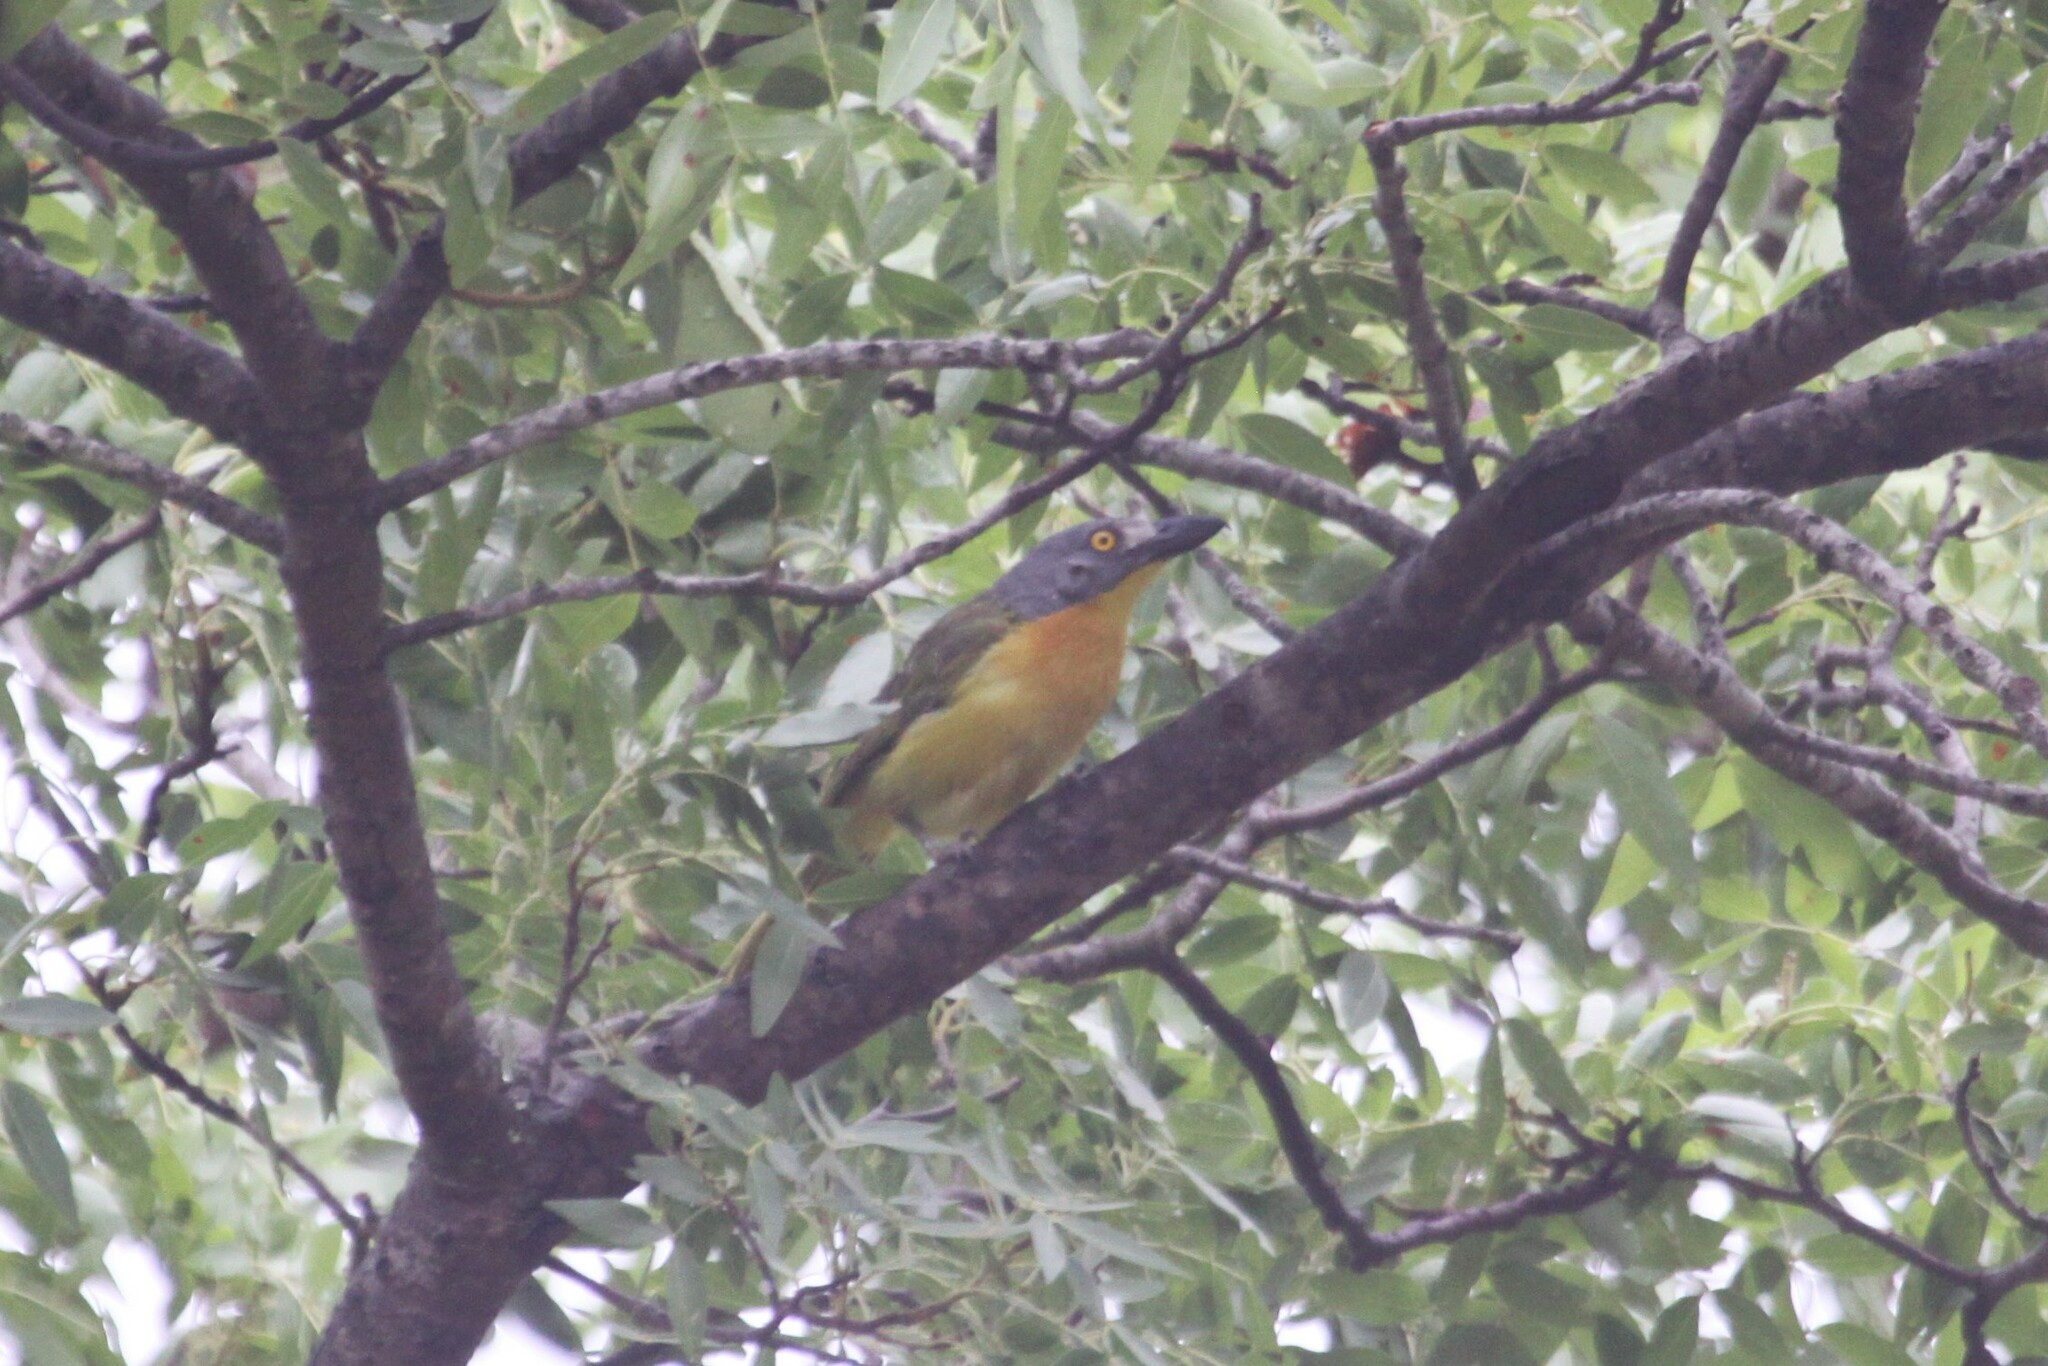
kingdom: Animalia
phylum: Chordata
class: Aves
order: Passeriformes
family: Malaconotidae
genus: Malaconotus
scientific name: Malaconotus blanchoti
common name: Grey-headed bushshrike
